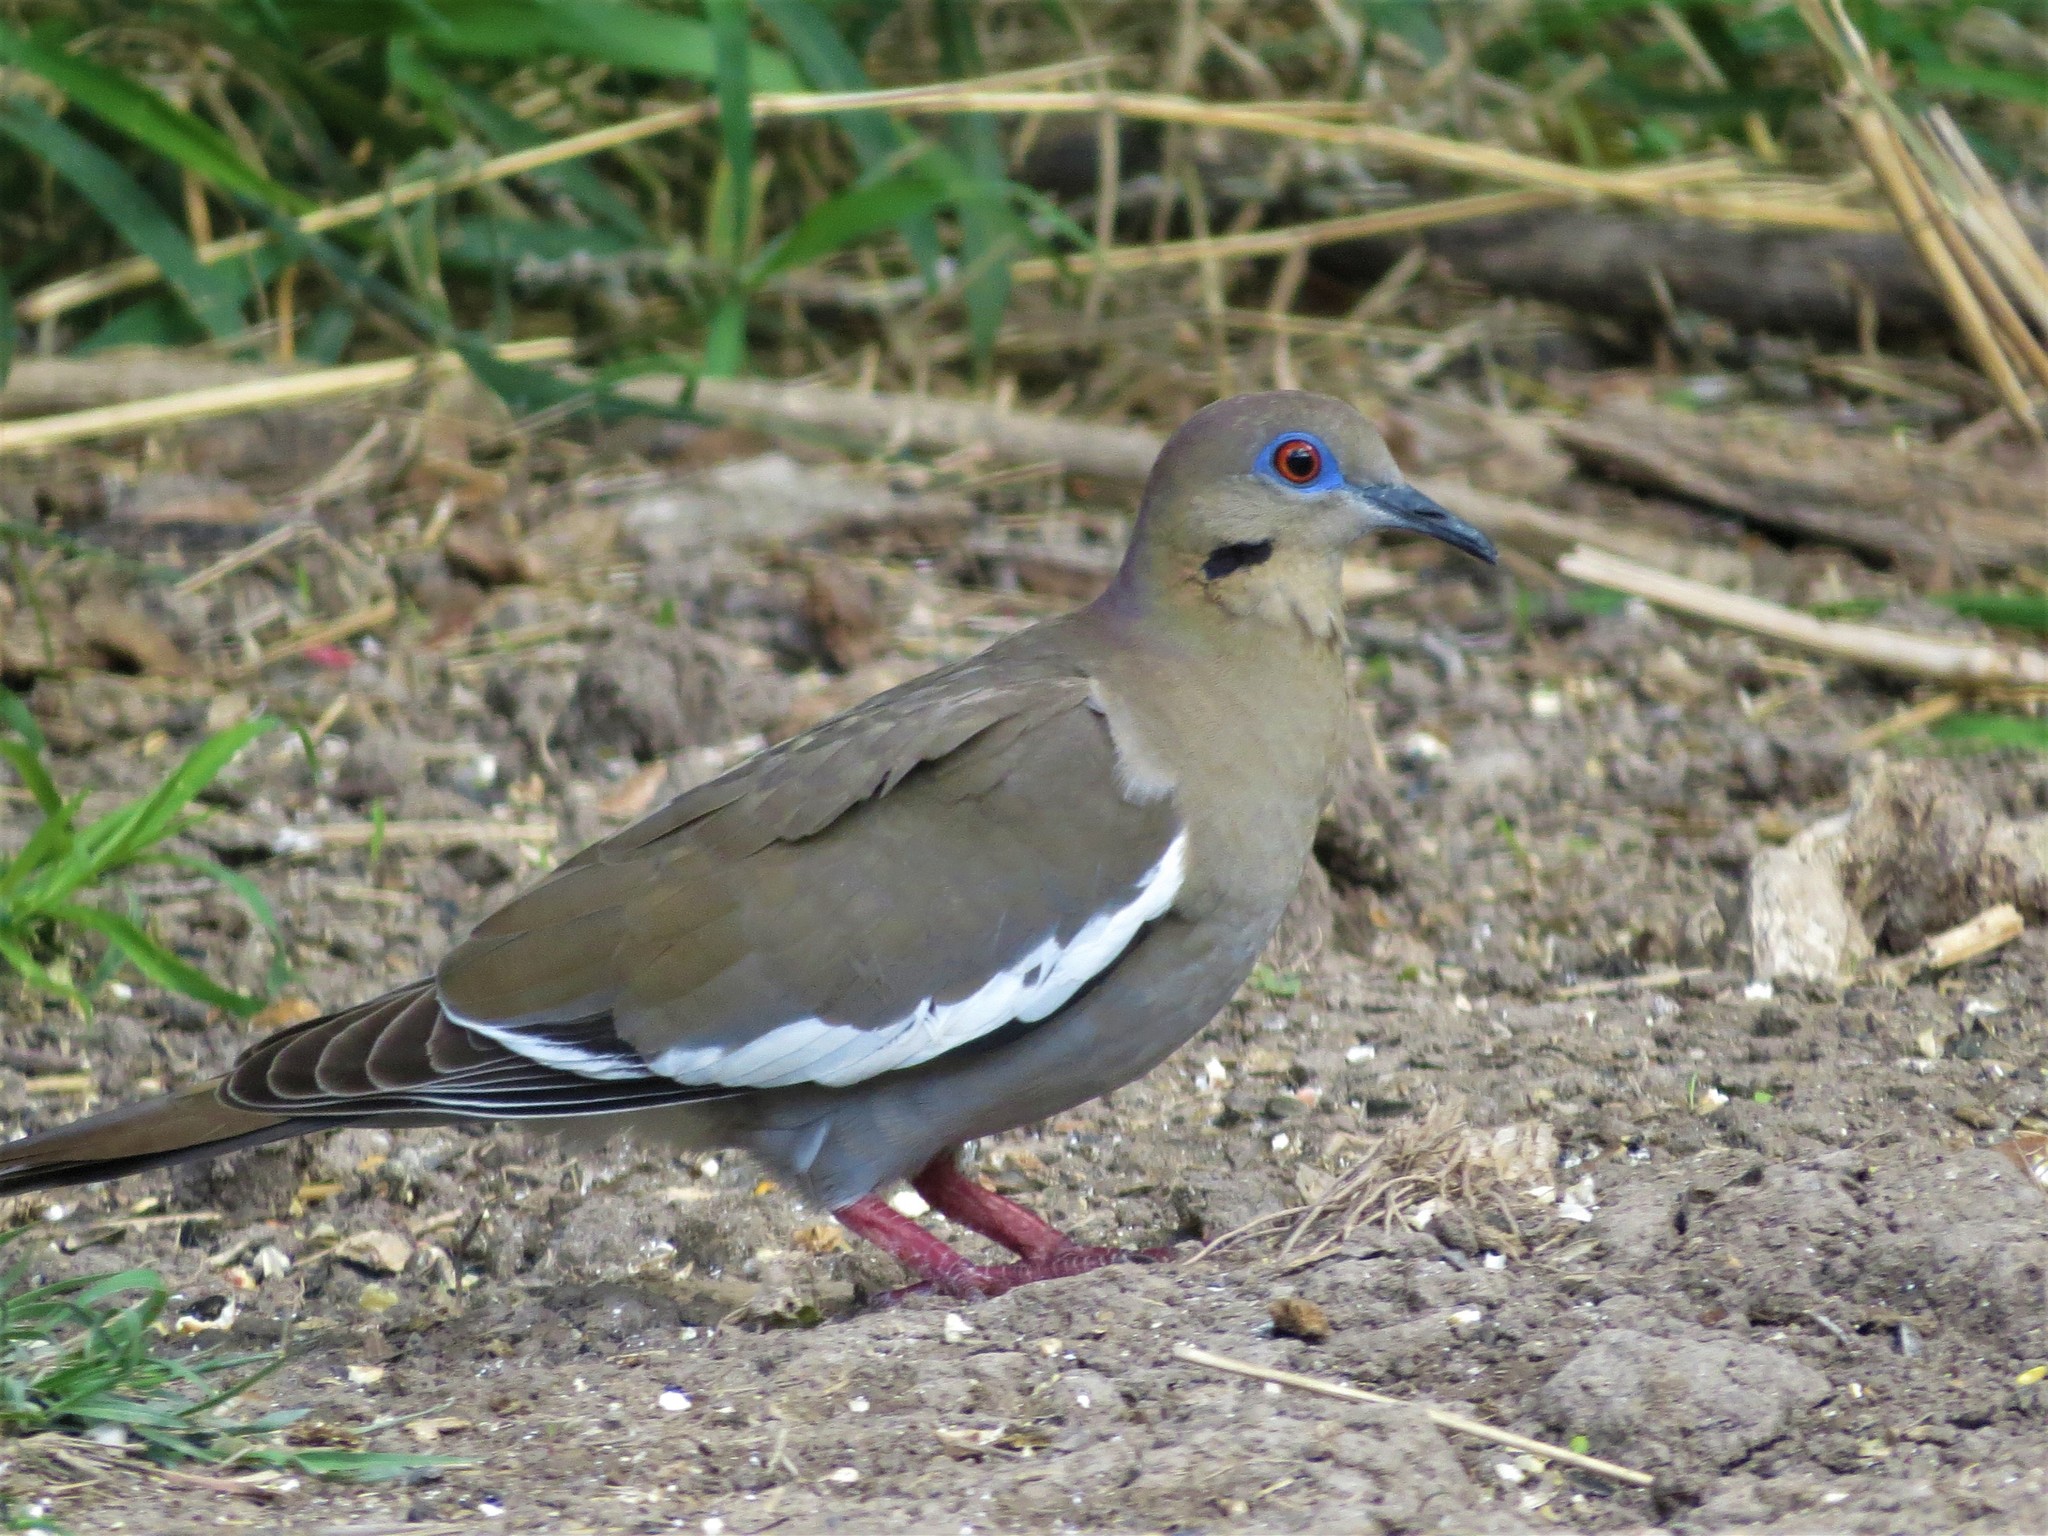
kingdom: Animalia
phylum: Chordata
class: Aves
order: Columbiformes
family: Columbidae
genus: Zenaida
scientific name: Zenaida asiatica
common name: White-winged dove
